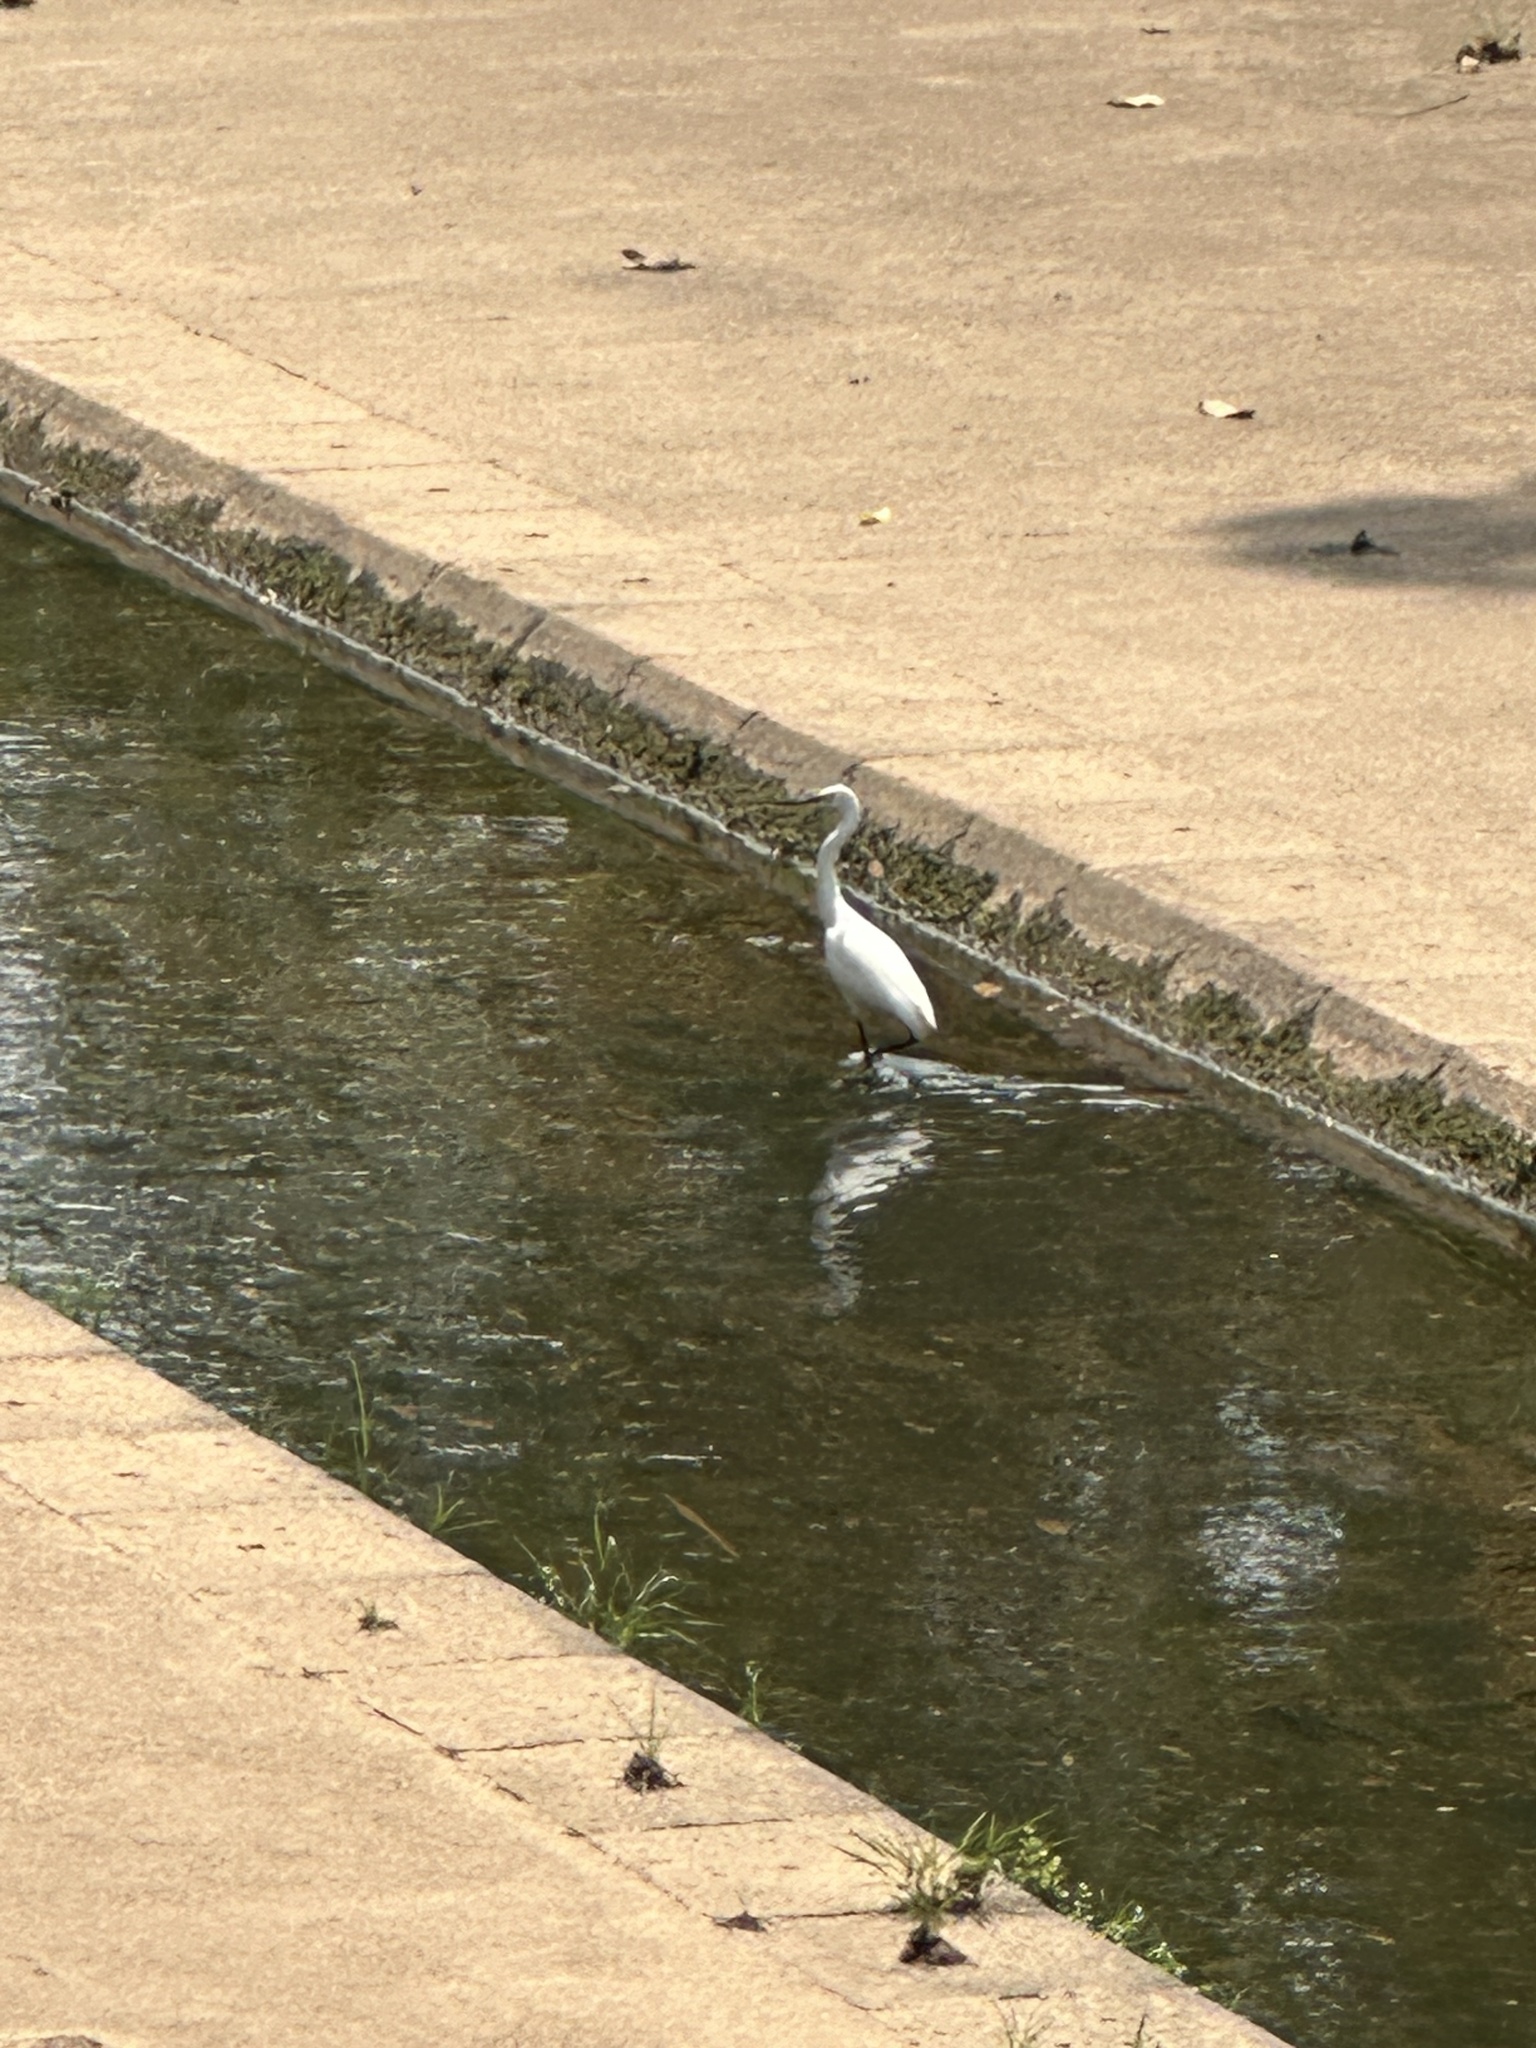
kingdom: Animalia
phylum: Chordata
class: Aves
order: Pelecaniformes
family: Ardeidae
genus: Egretta
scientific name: Egretta garzetta
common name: Little egret
